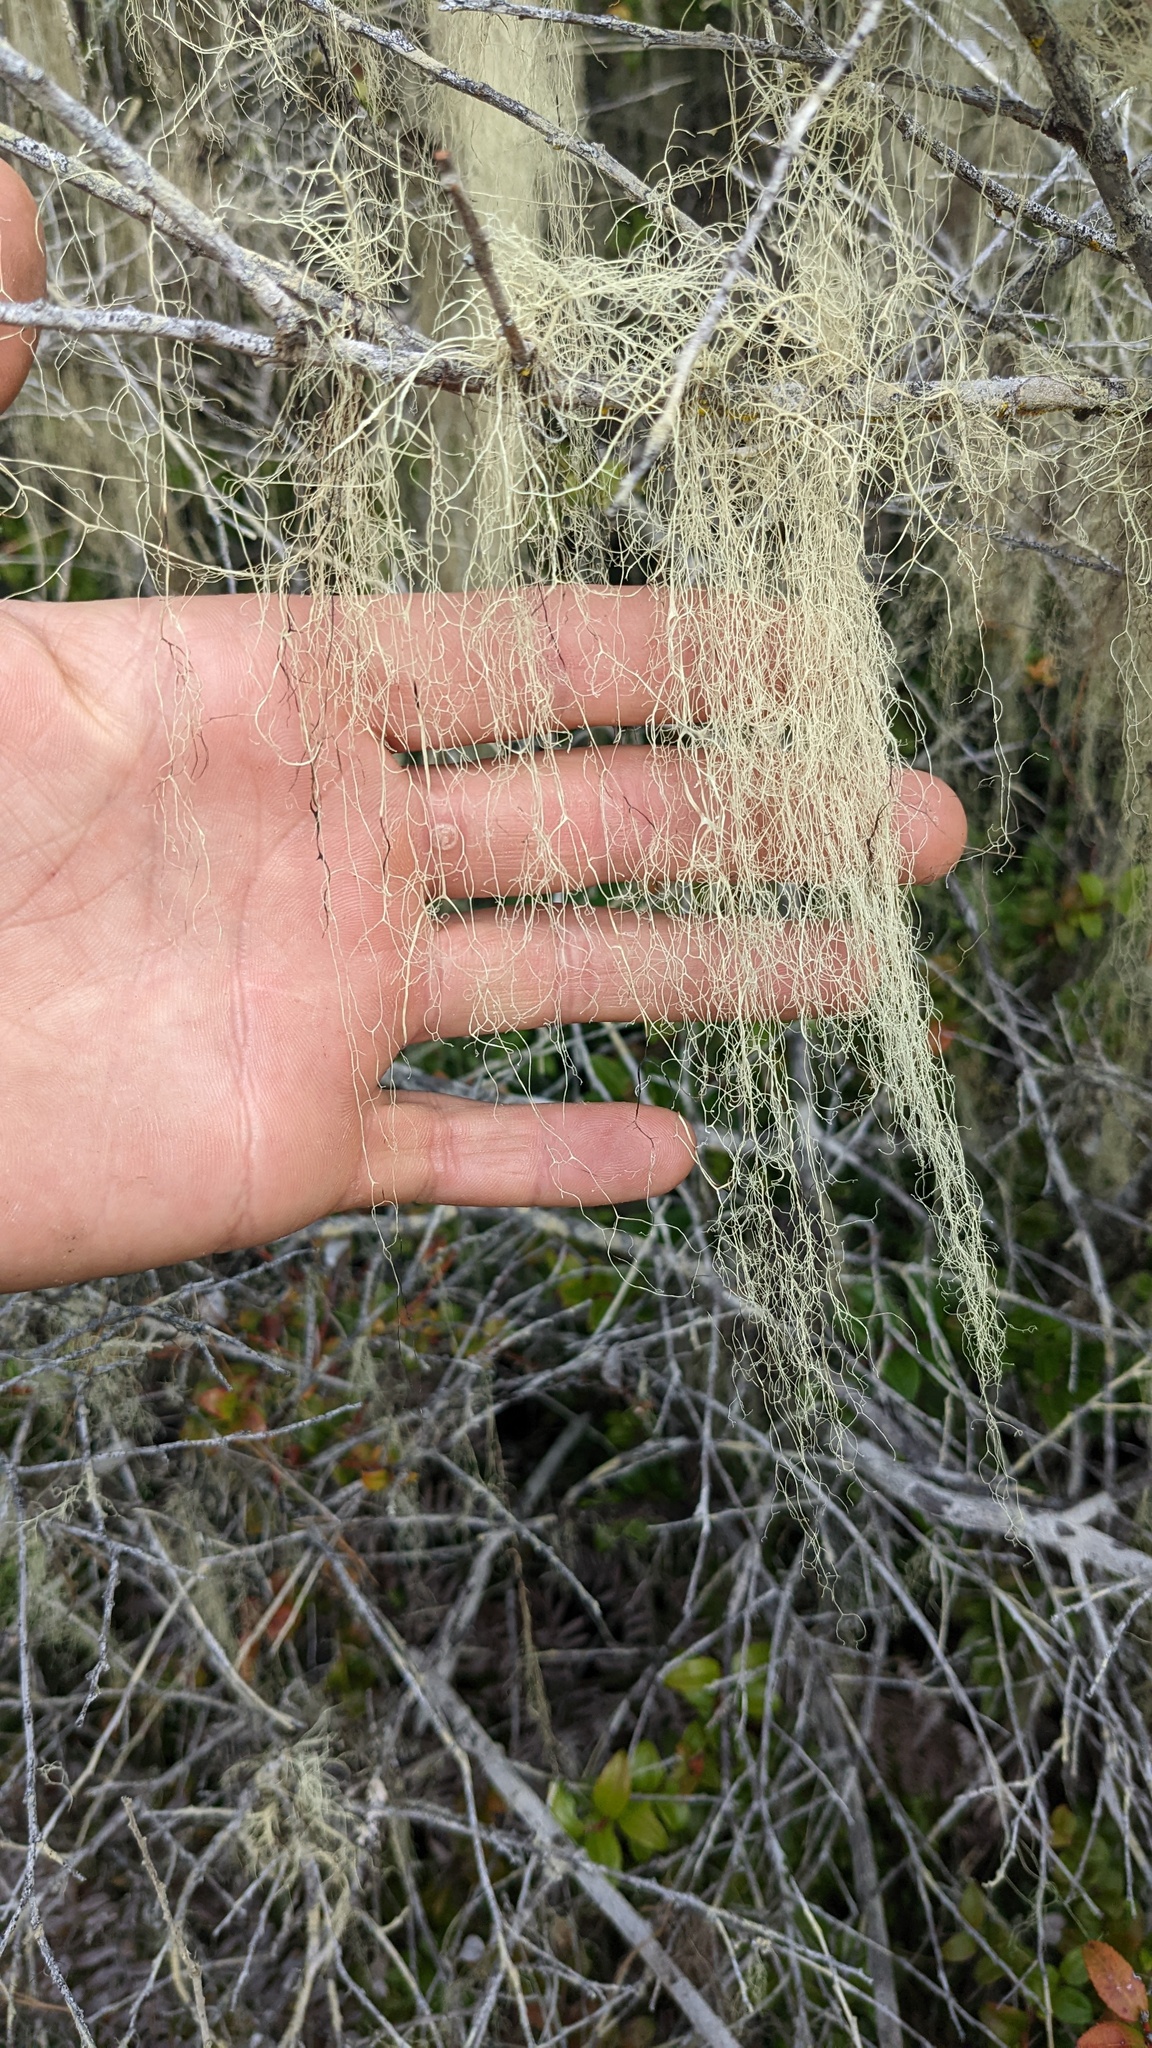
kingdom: Fungi
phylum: Ascomycota
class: Lecanoromycetes
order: Lecanorales
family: Ramalinaceae
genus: Ramalina
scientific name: Ramalina menziesii
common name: Lace lichen
